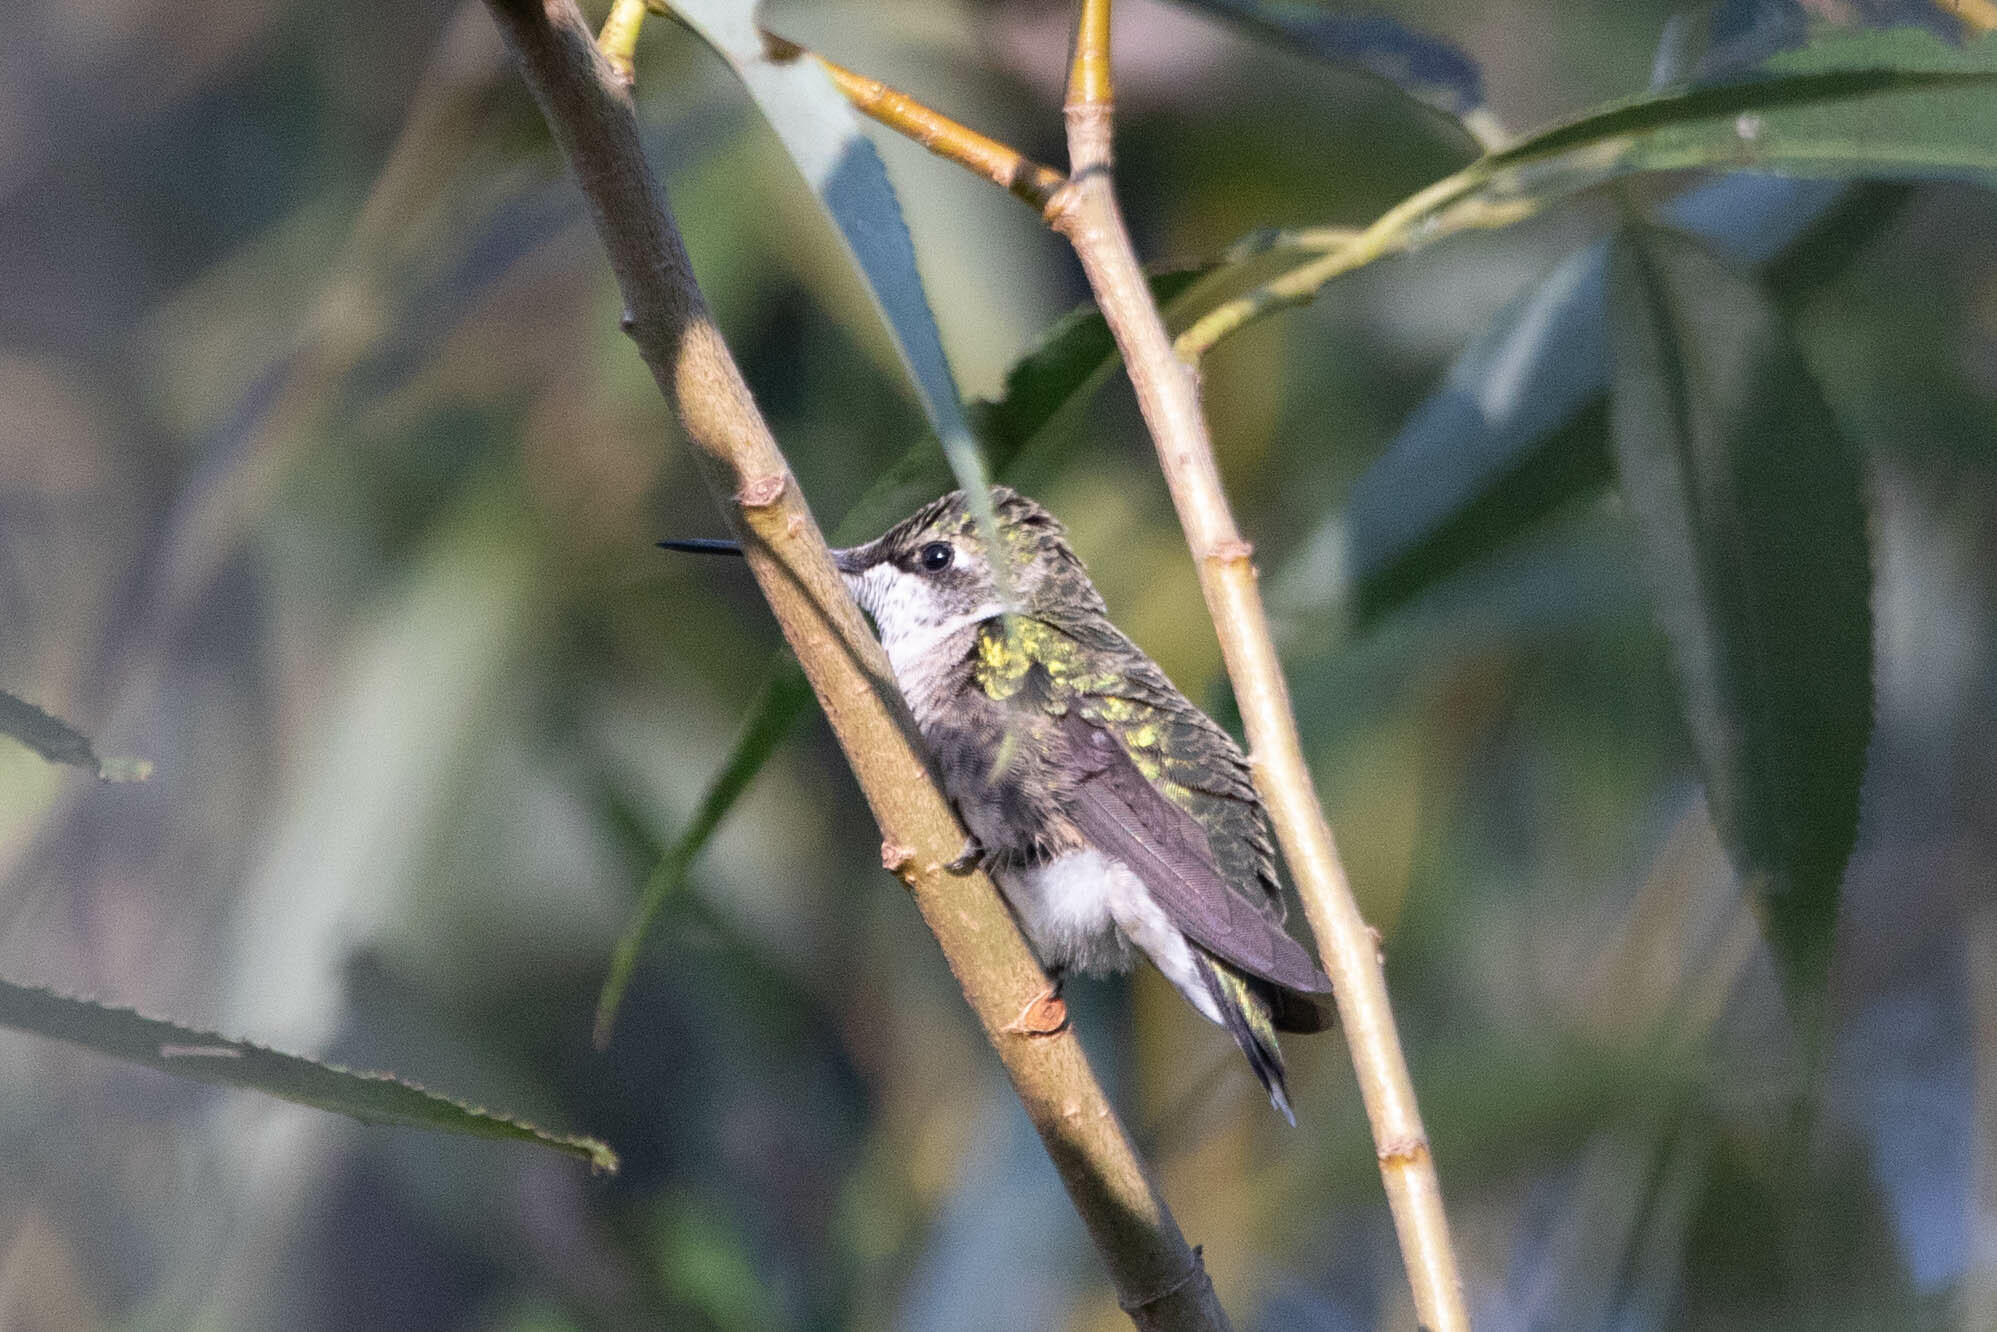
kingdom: Animalia
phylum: Chordata
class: Aves
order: Apodiformes
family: Trochilidae
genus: Archilochus
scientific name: Archilochus colubris
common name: Ruby-throated hummingbird
